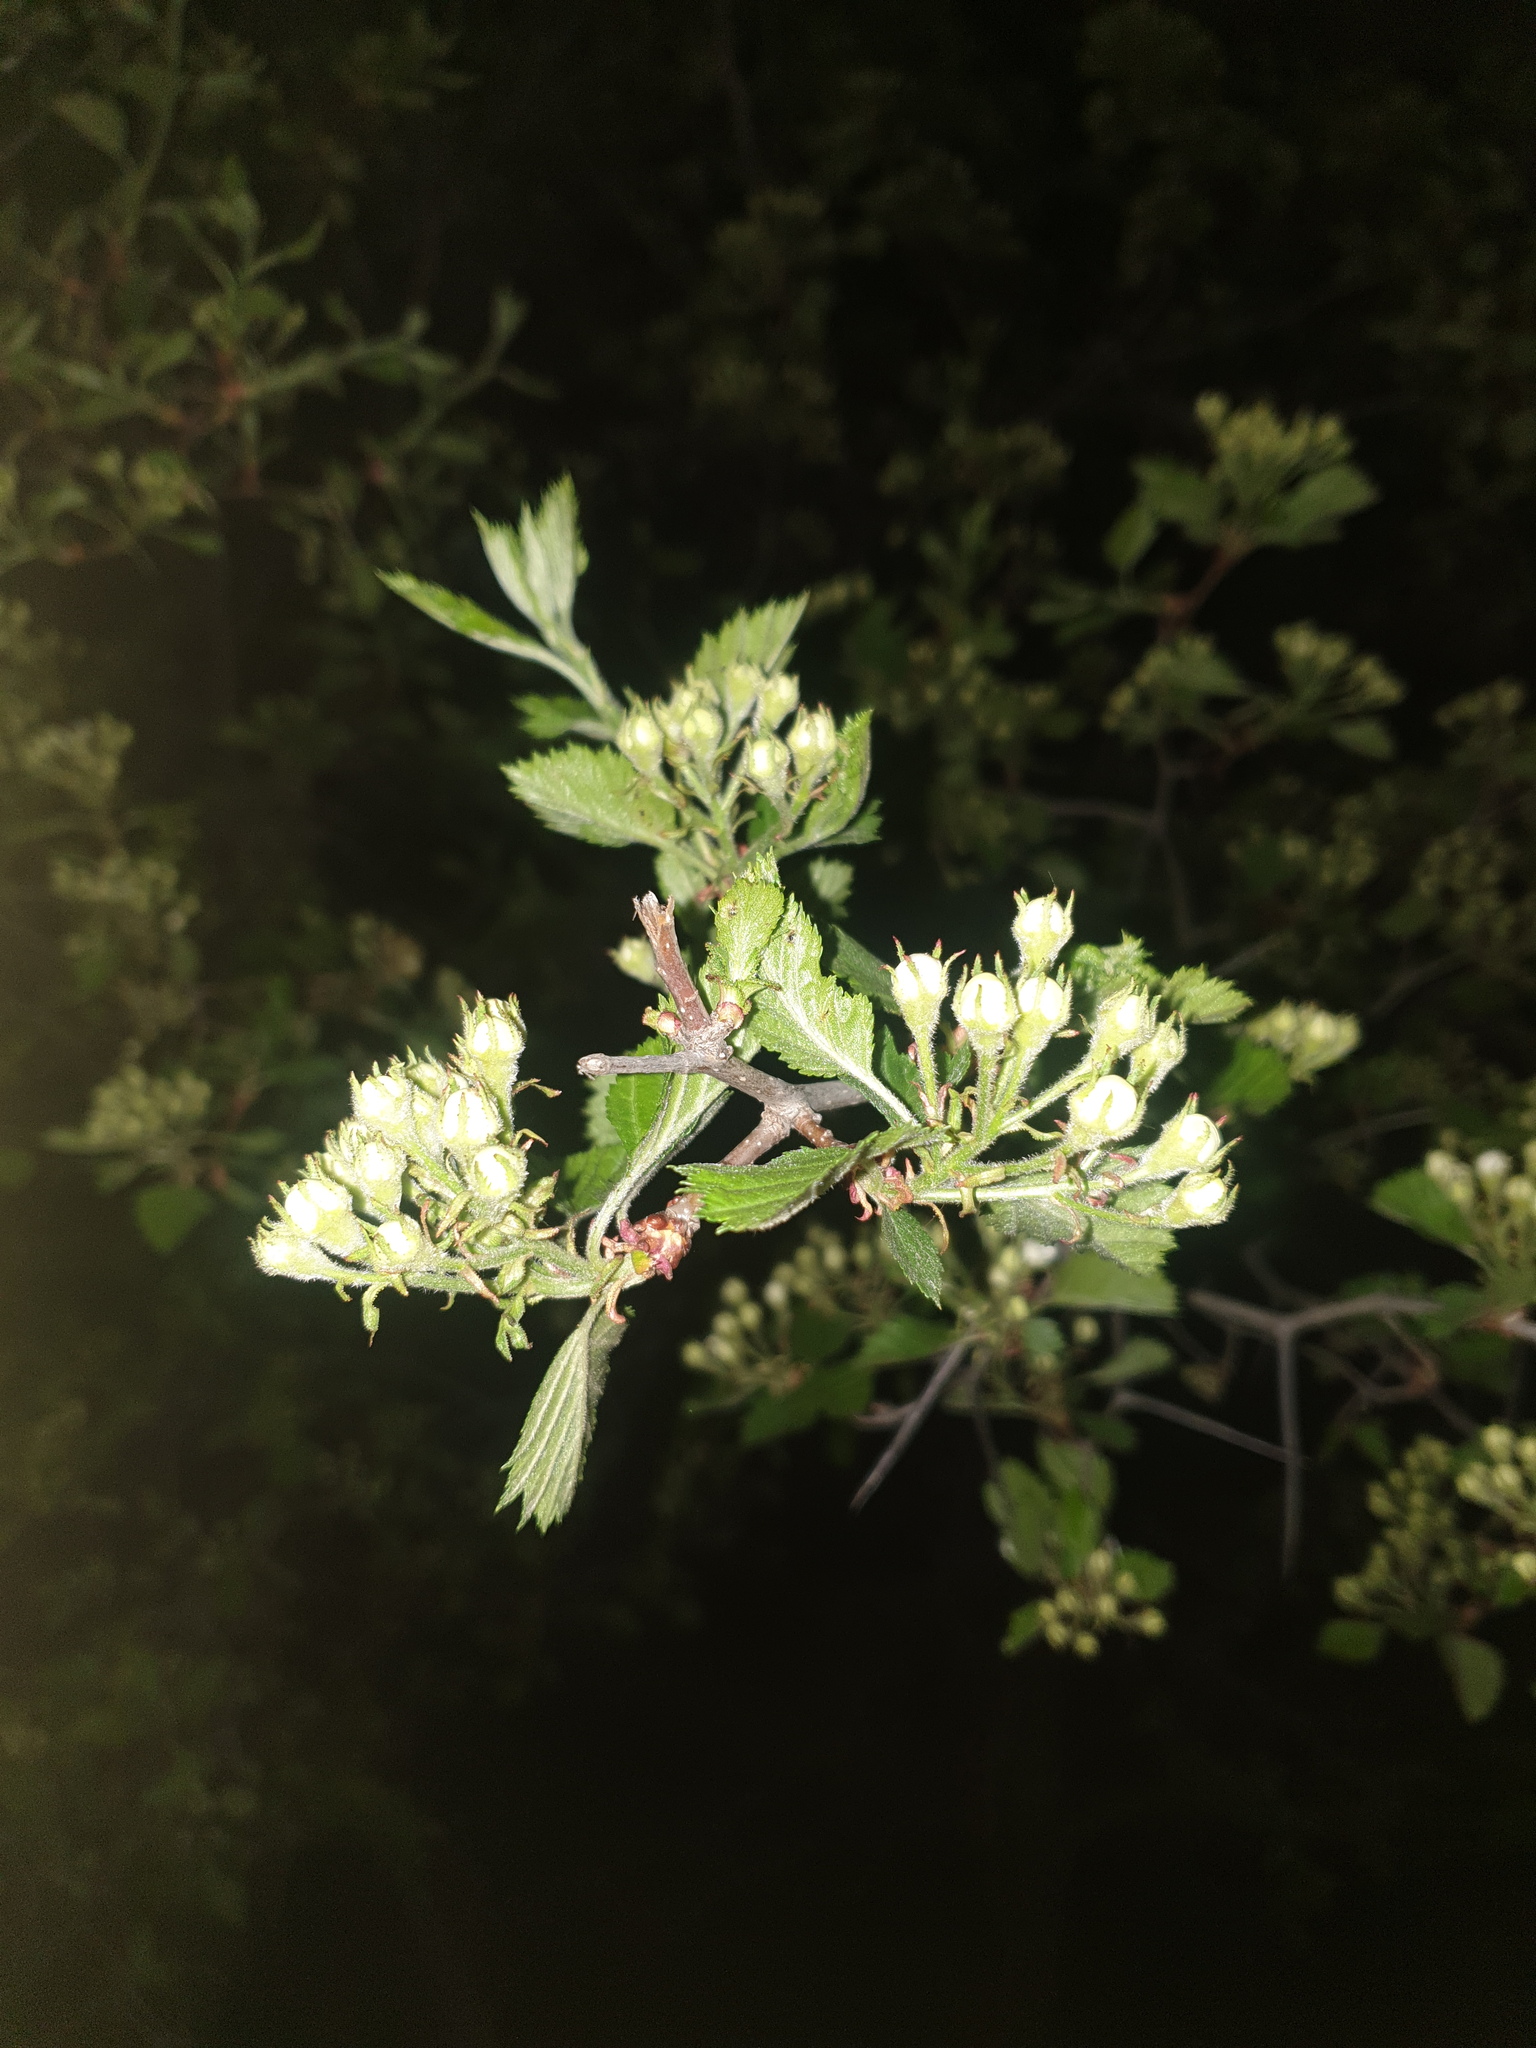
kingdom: Plantae
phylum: Tracheophyta
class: Magnoliopsida
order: Rosales
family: Rosaceae
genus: Crataegus
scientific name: Crataegus submollis
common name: Hairy cockspurthorn
